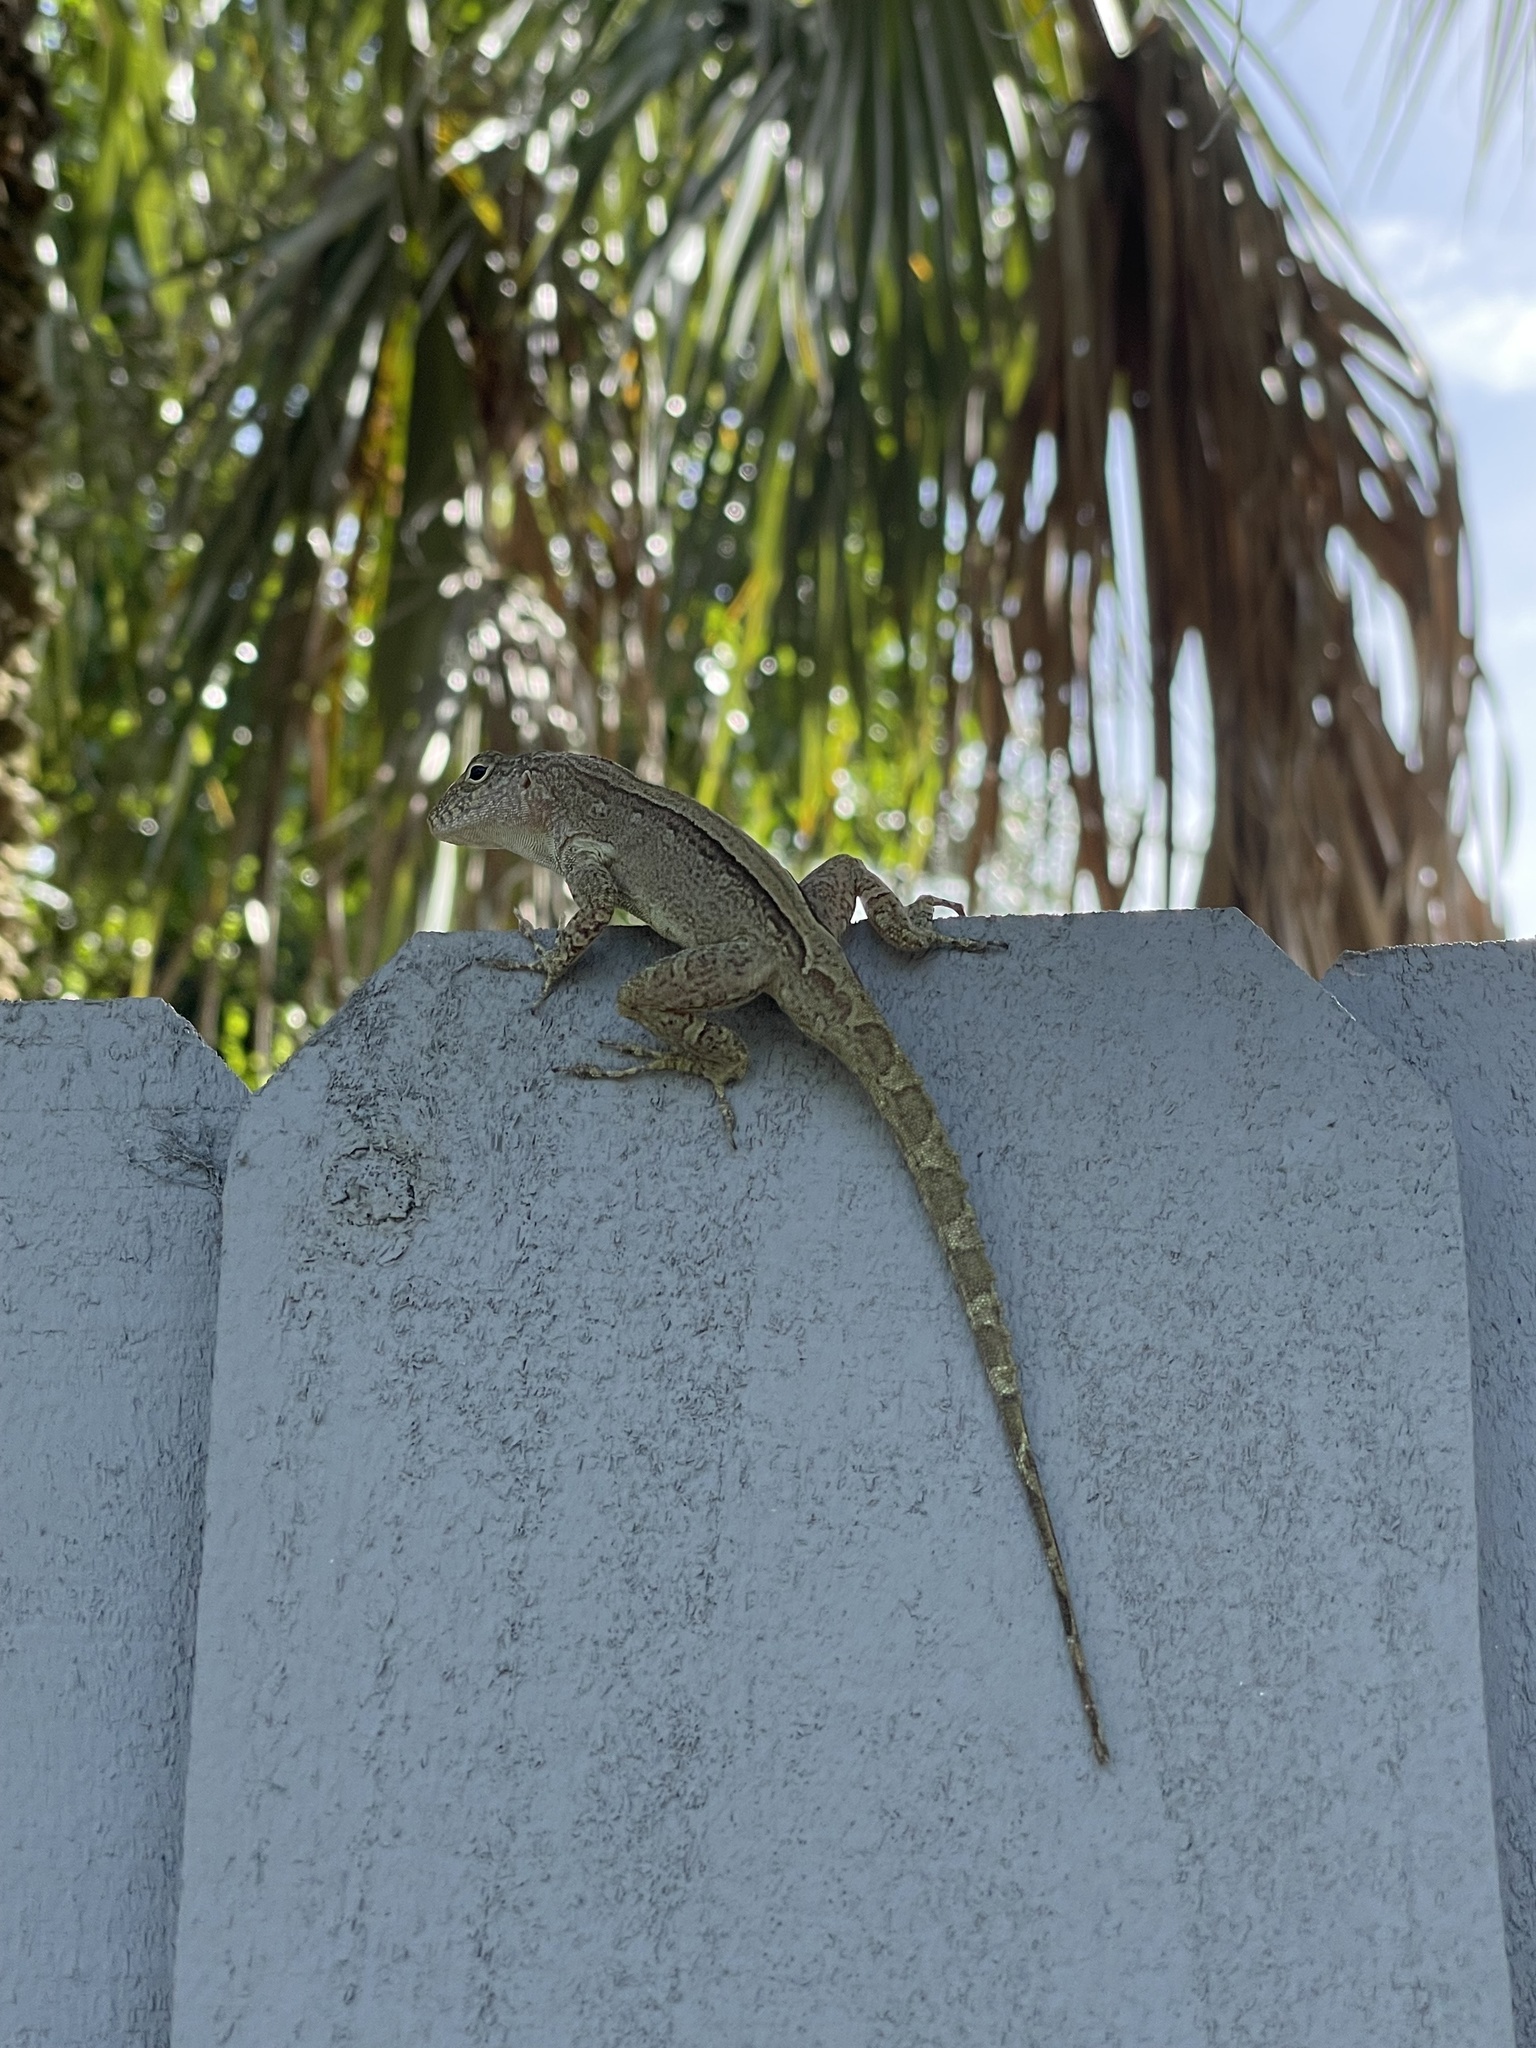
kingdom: Animalia
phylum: Chordata
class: Squamata
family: Dactyloidae
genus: Anolis
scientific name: Anolis cristatellus
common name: Crested anole
